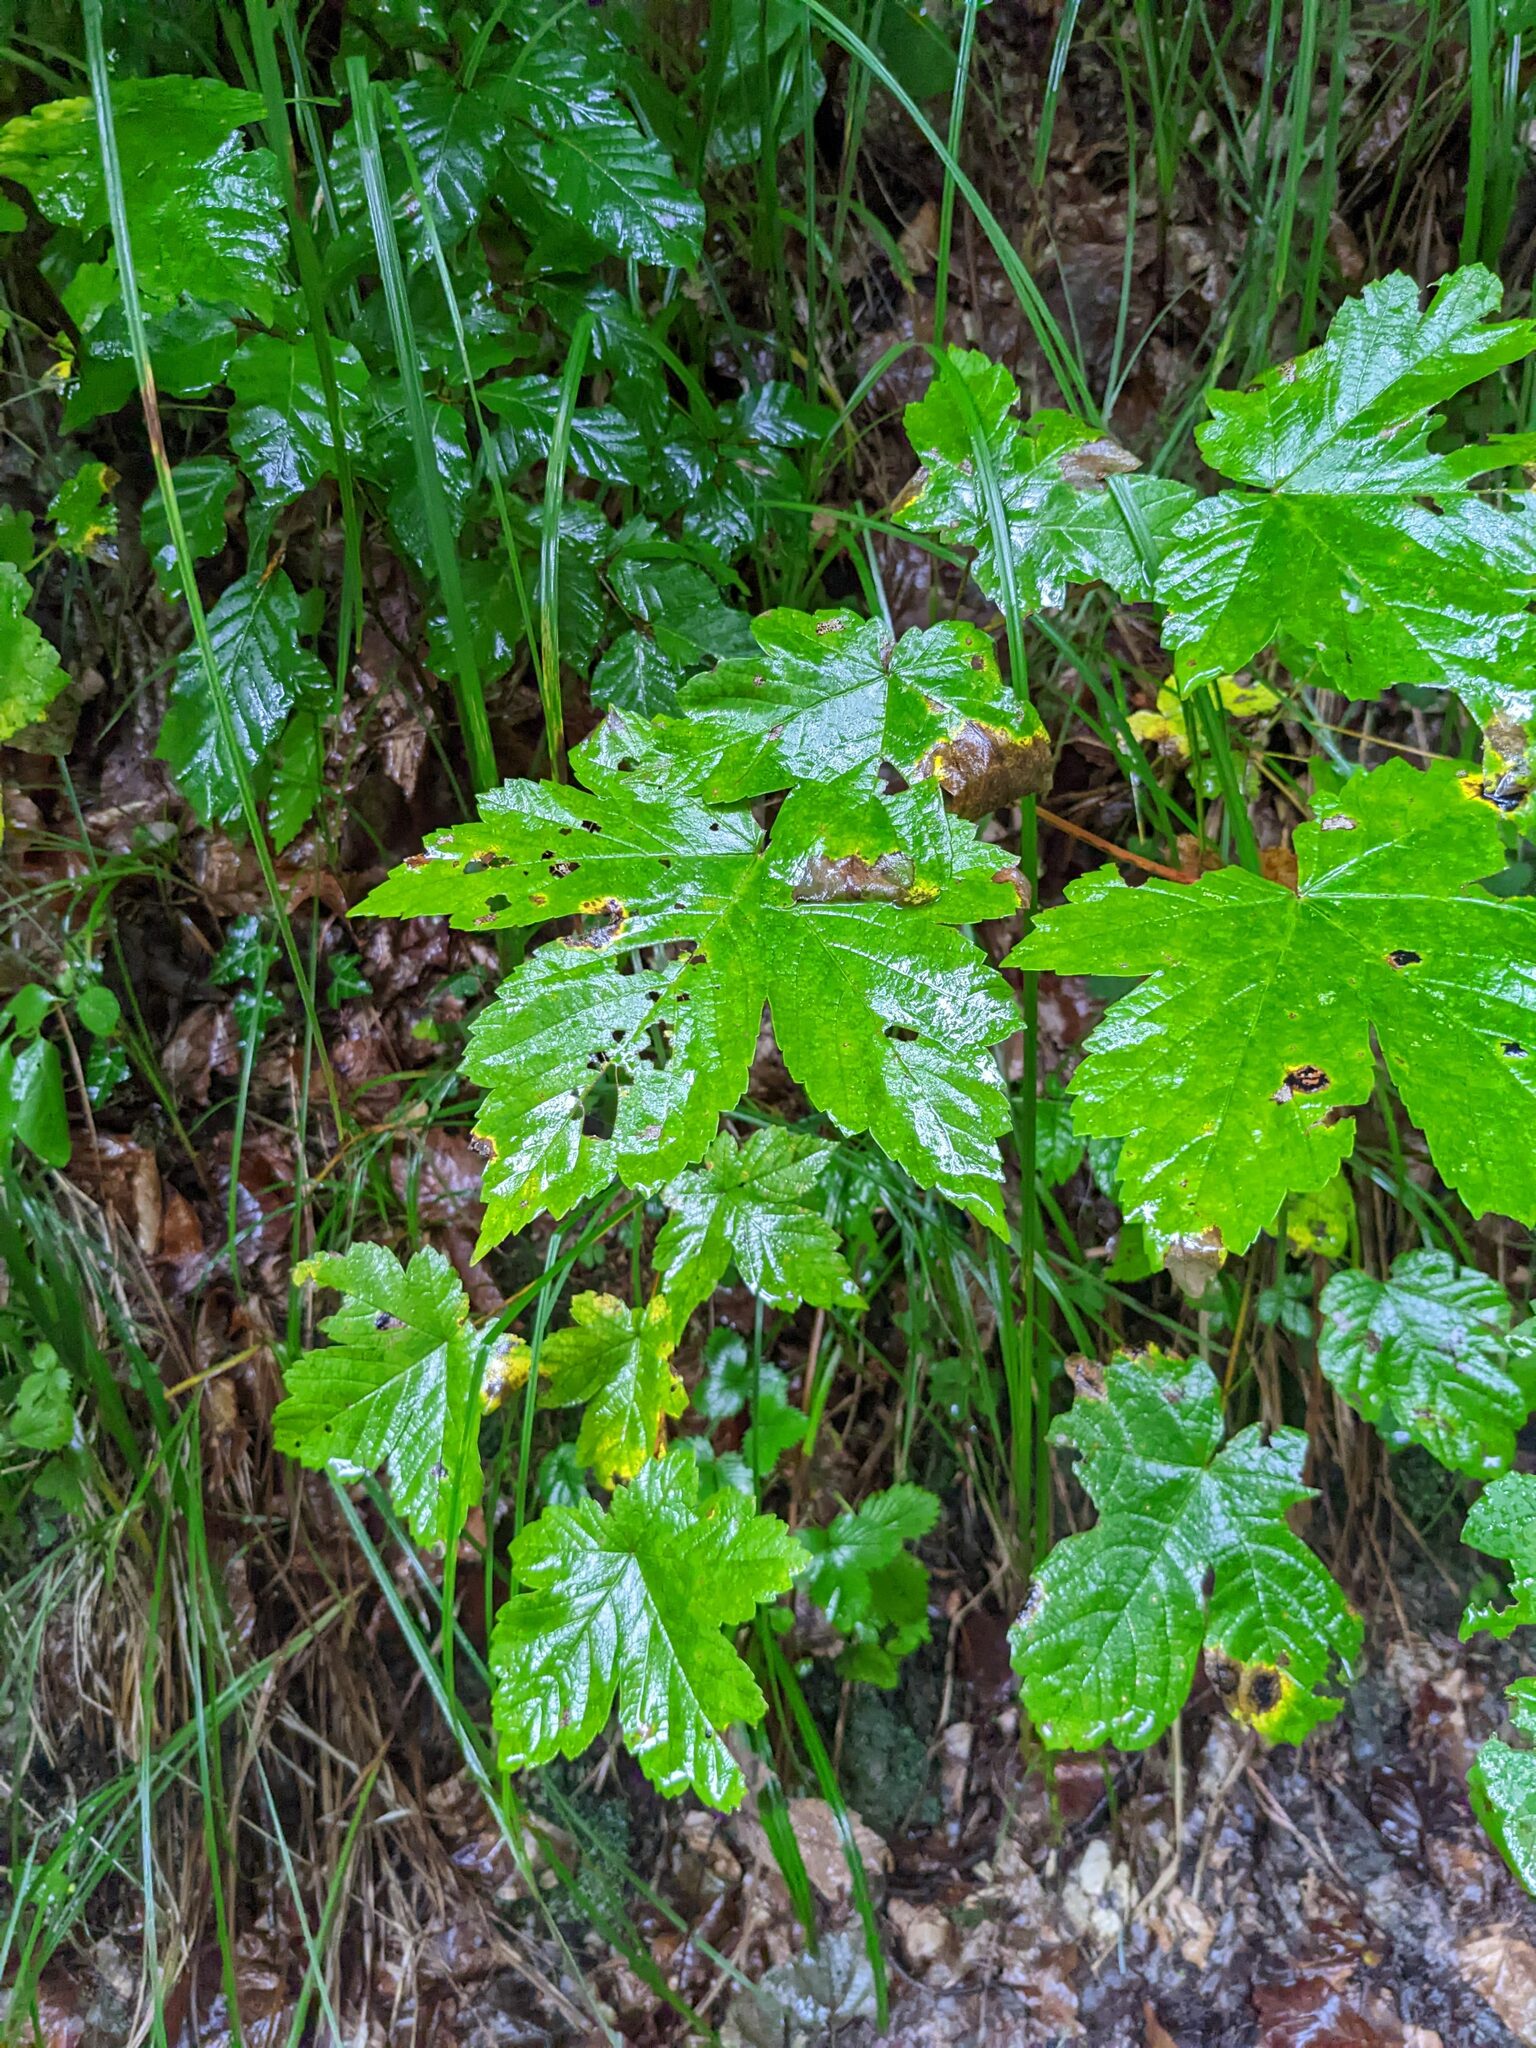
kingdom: Plantae
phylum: Tracheophyta
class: Magnoliopsida
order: Sapindales
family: Sapindaceae
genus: Acer
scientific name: Acer pseudoplatanus
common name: Sycamore
